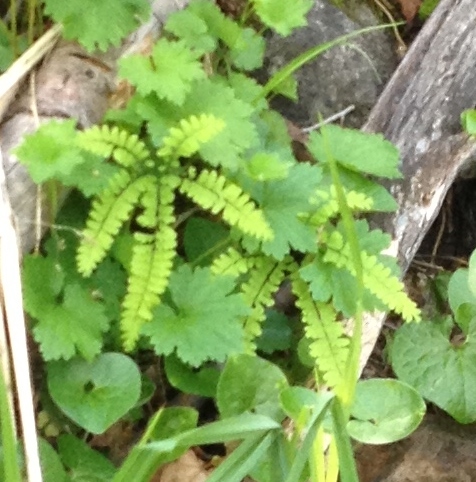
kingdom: Plantae
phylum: Tracheophyta
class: Polypodiopsida
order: Polypodiales
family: Pteridaceae
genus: Adiantum
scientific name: Adiantum aleuticum
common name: Aleutian maidenhair fern
